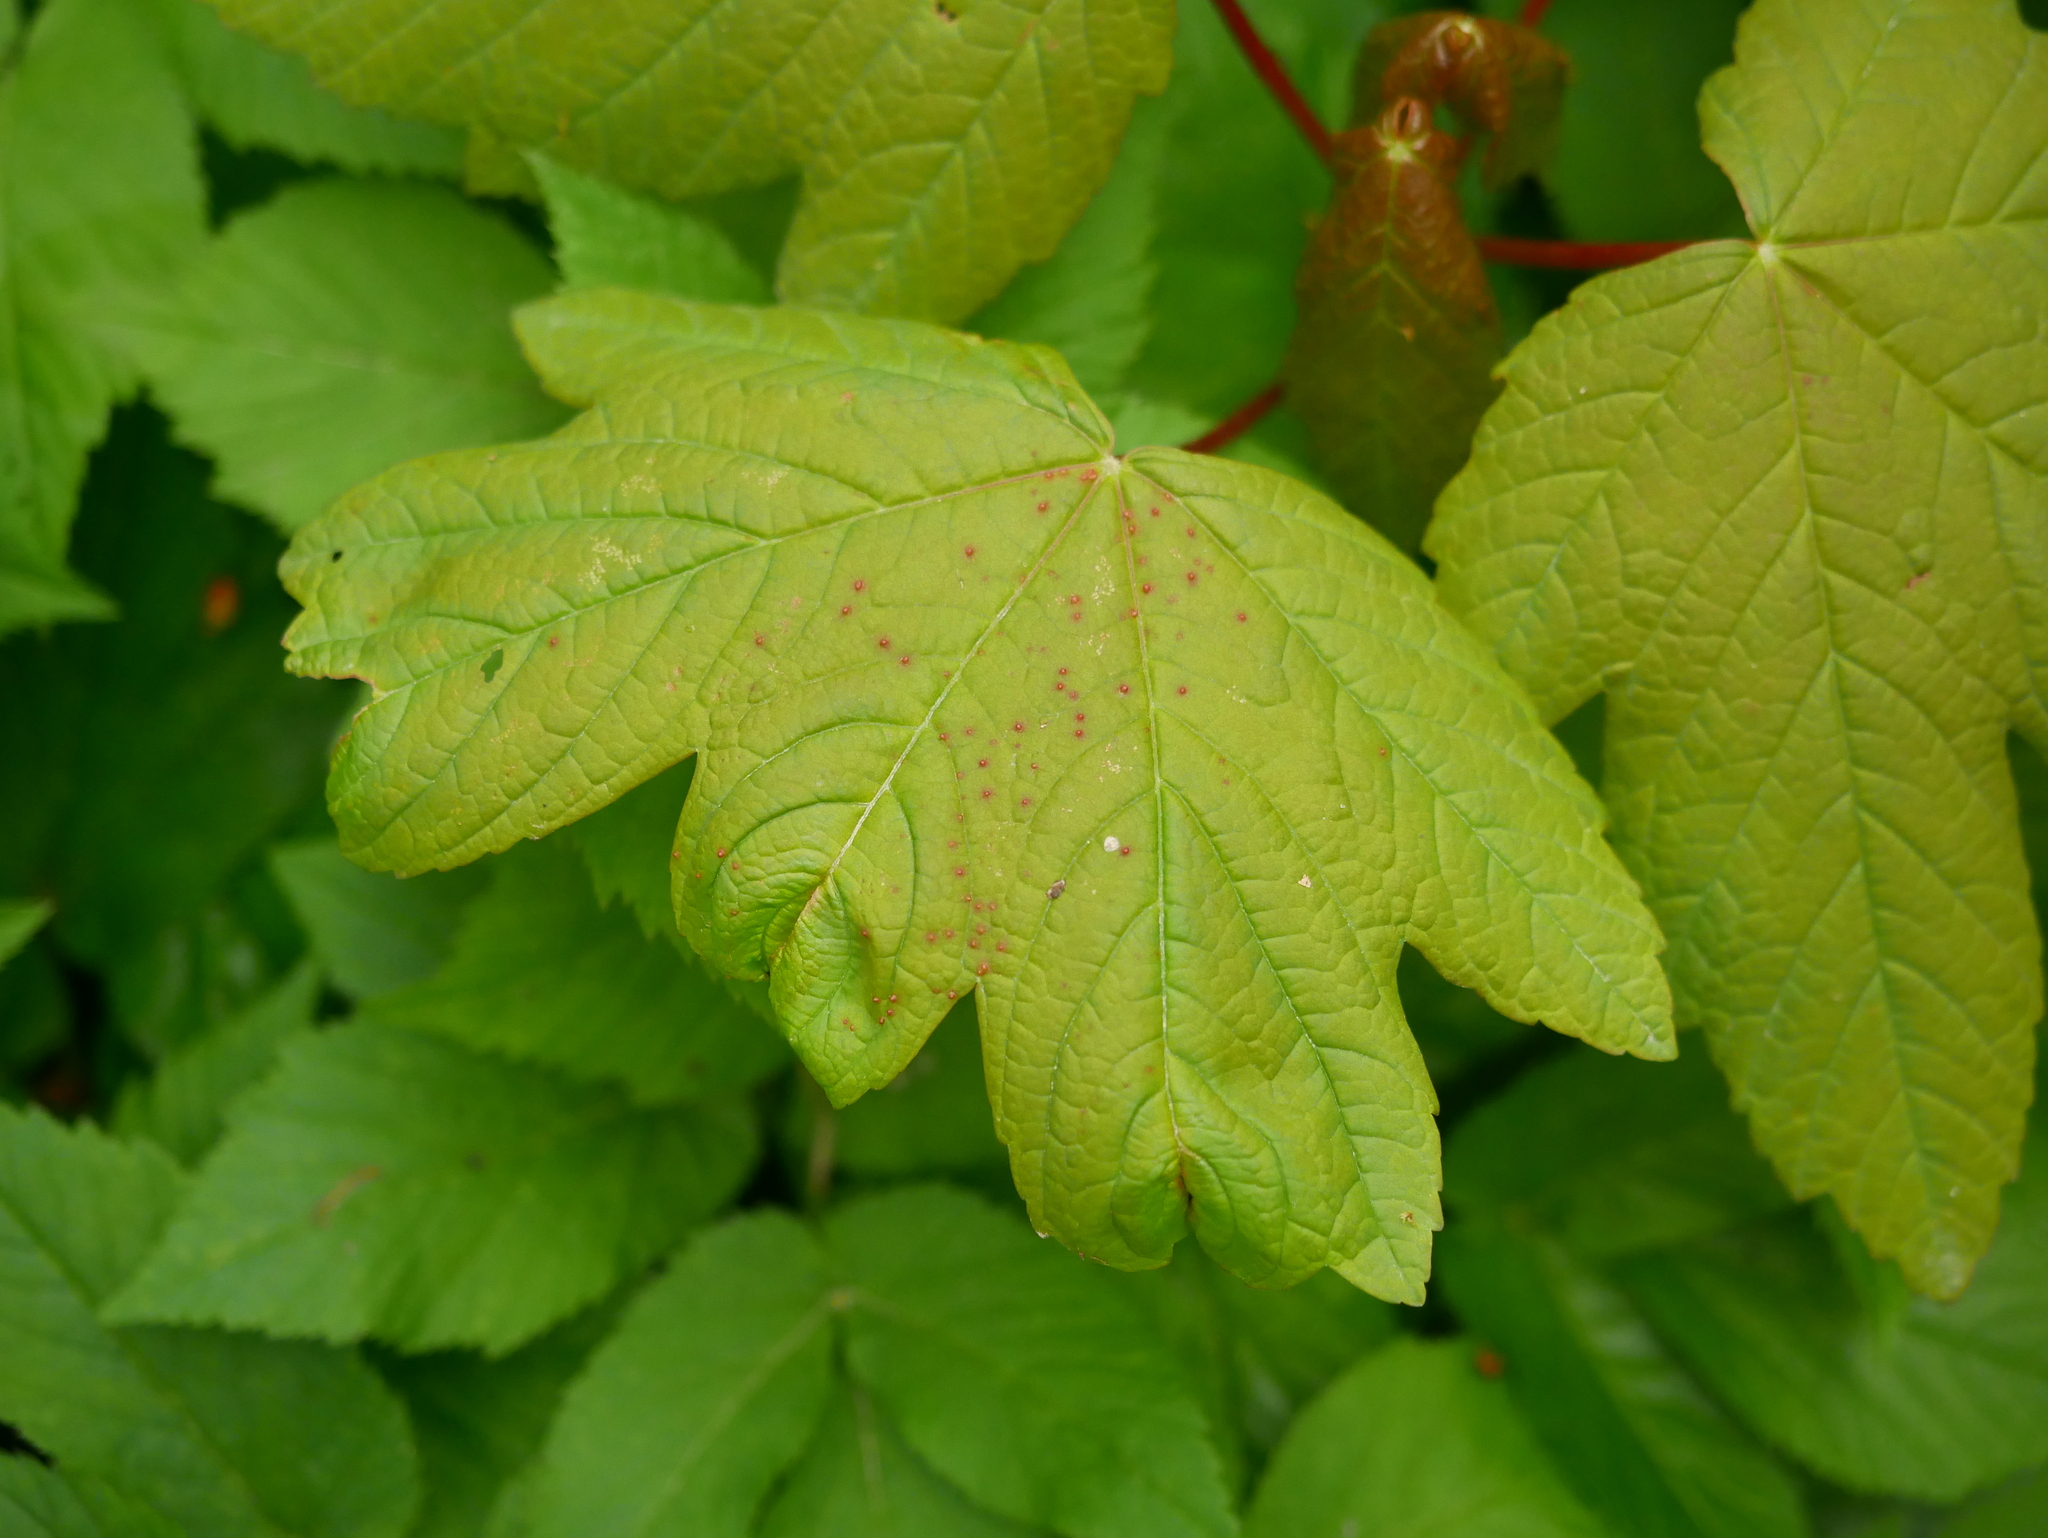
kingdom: Animalia
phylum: Arthropoda
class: Arachnida
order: Trombidiformes
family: Eriophyidae
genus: Aceria
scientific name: Aceria cephaloneus
